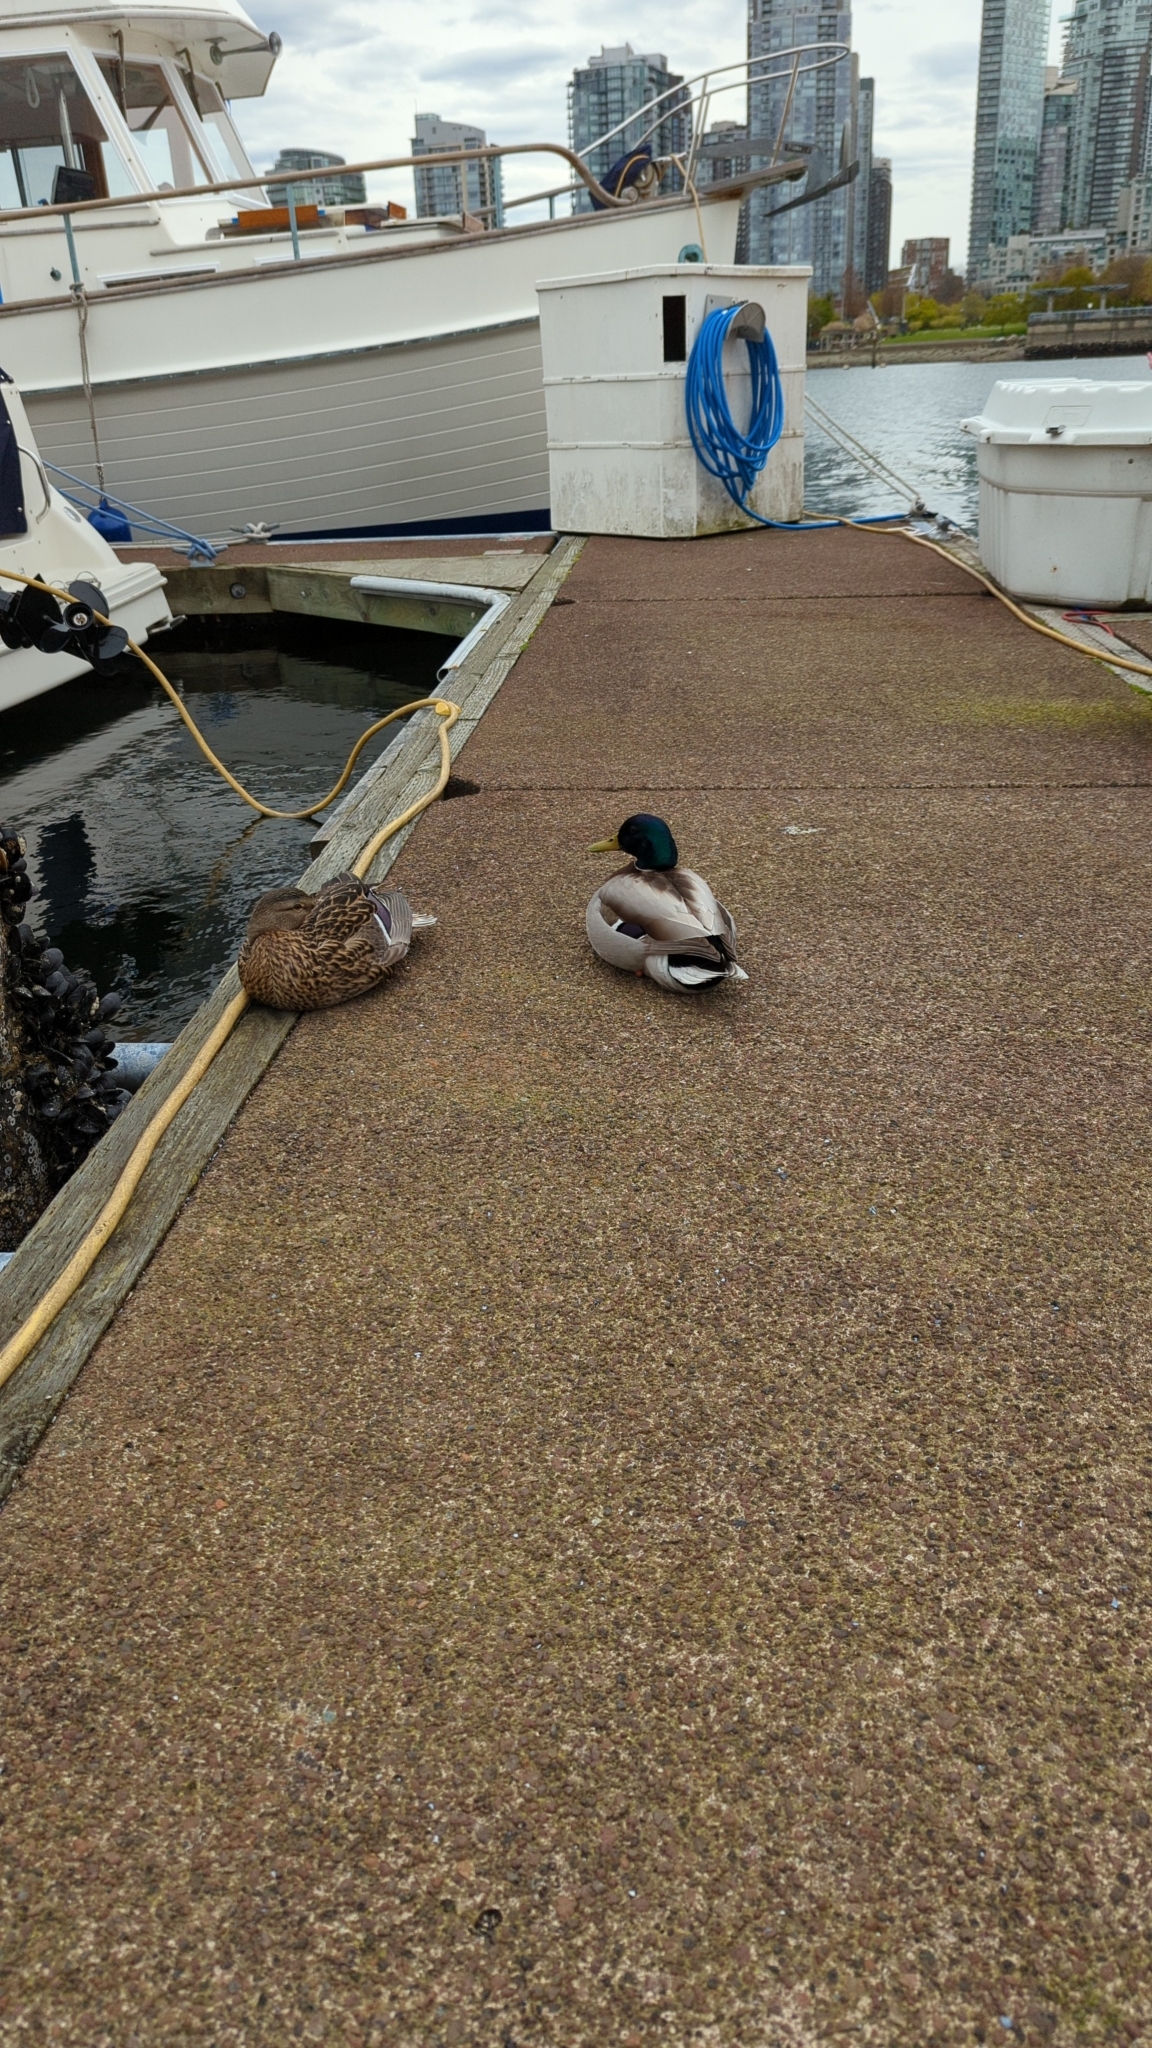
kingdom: Animalia
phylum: Chordata
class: Aves
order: Anseriformes
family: Anatidae
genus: Anas
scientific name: Anas platyrhynchos
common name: Mallard
